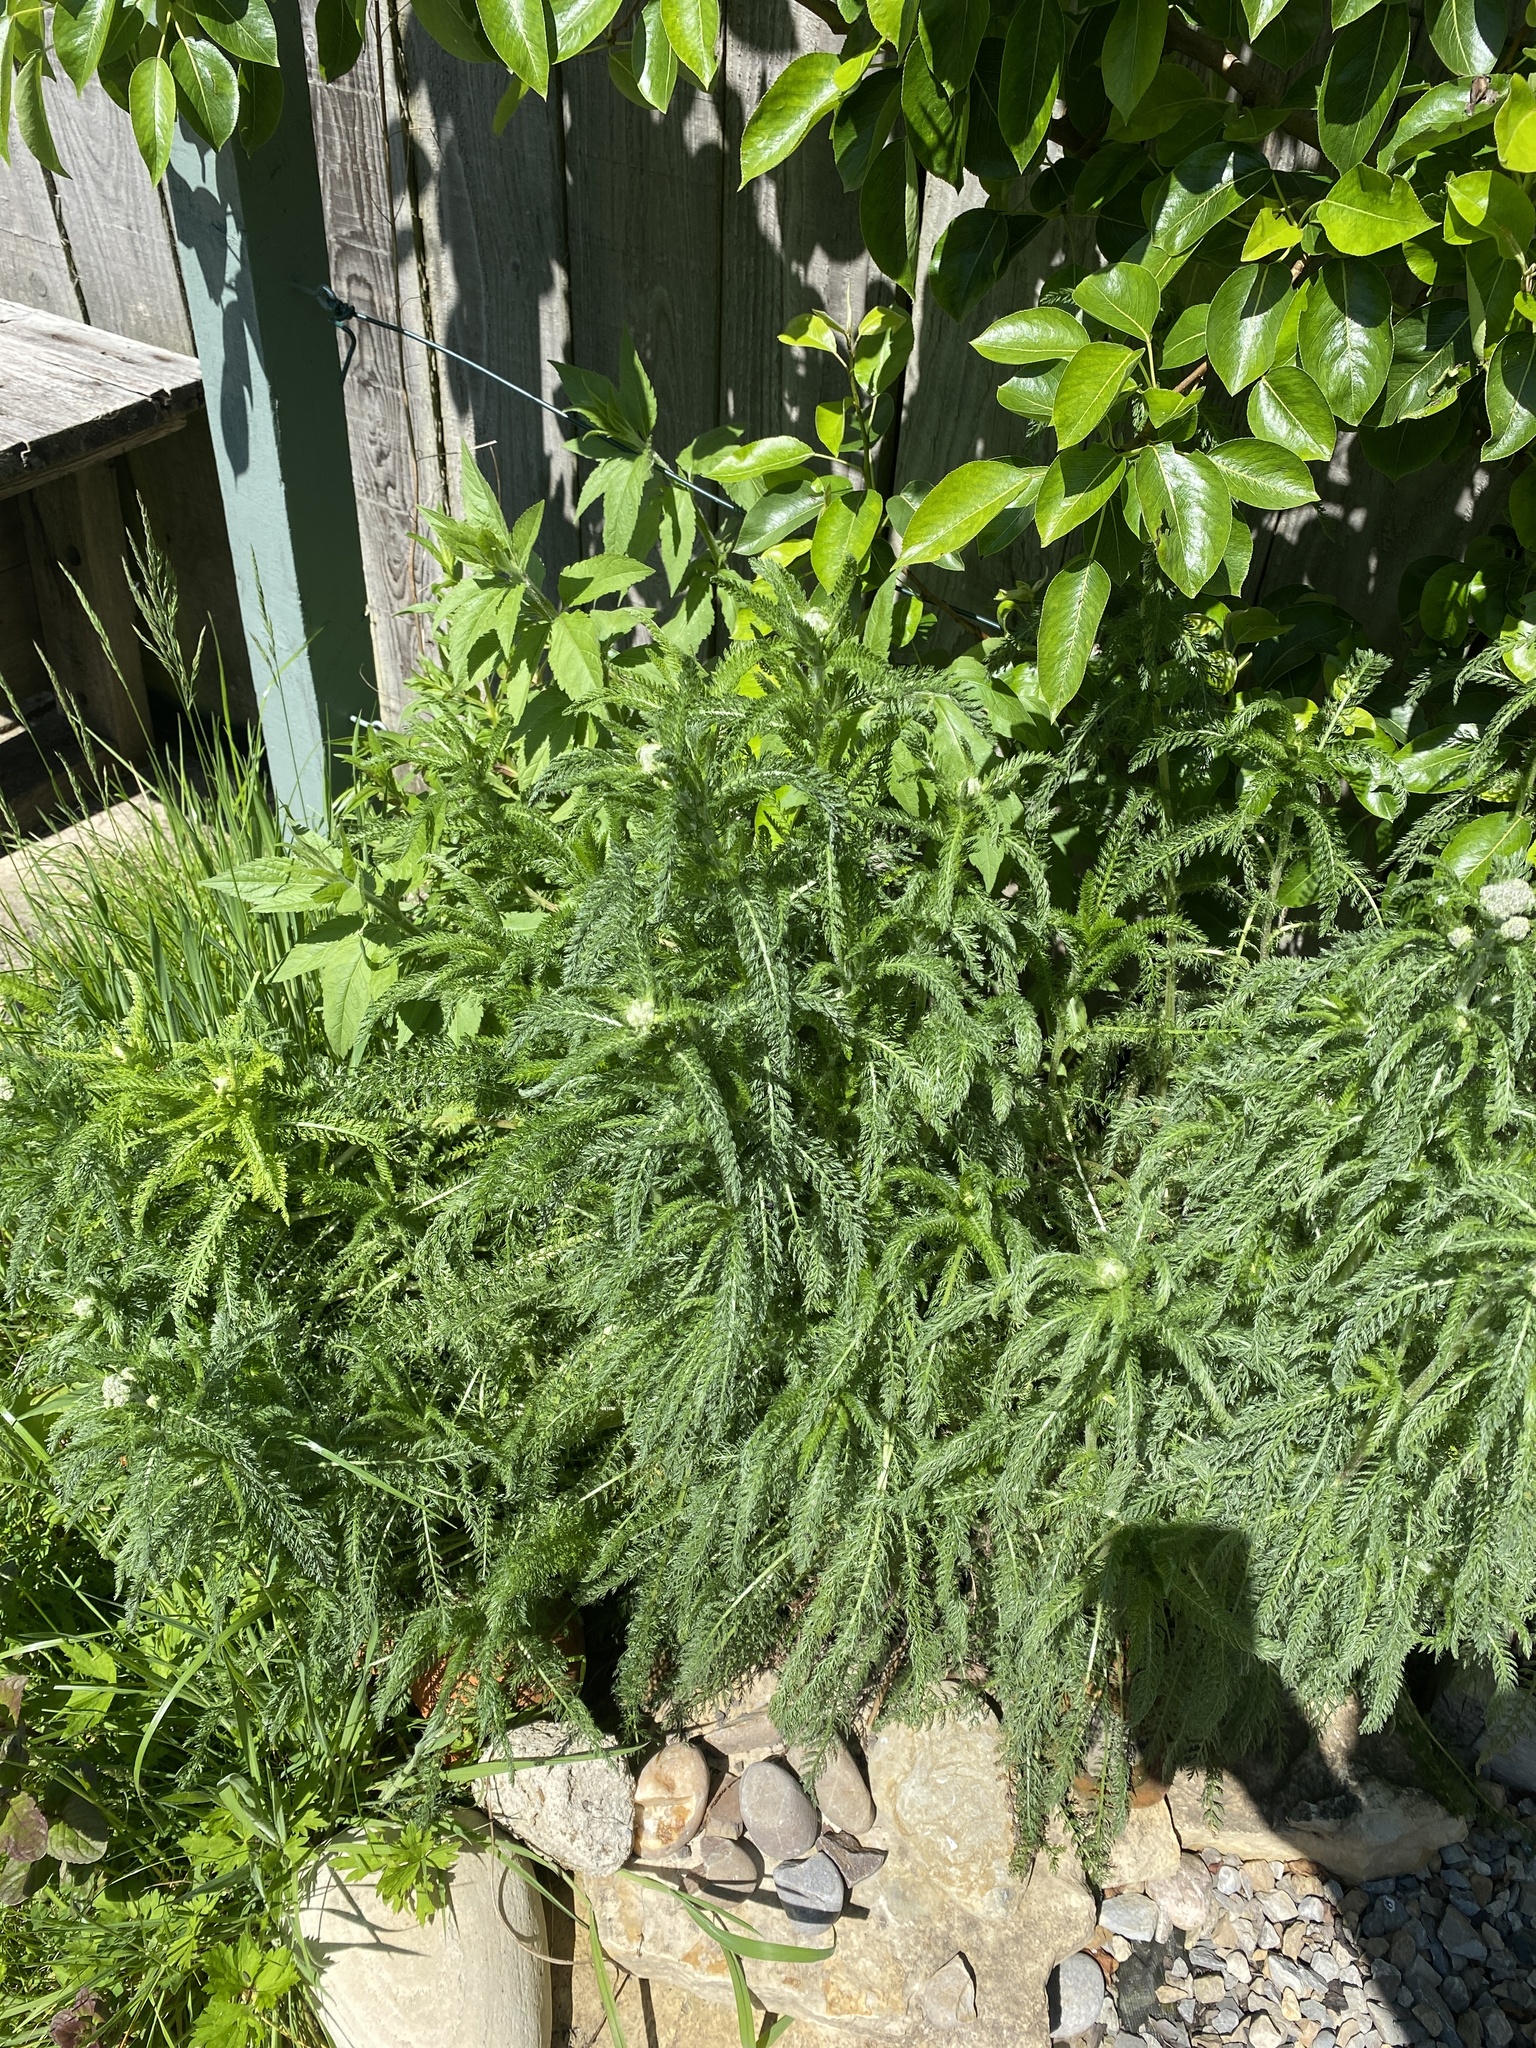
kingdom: Plantae
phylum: Tracheophyta
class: Magnoliopsida
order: Asterales
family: Asteraceae
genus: Achillea
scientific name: Achillea millefolium
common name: Yarrow
